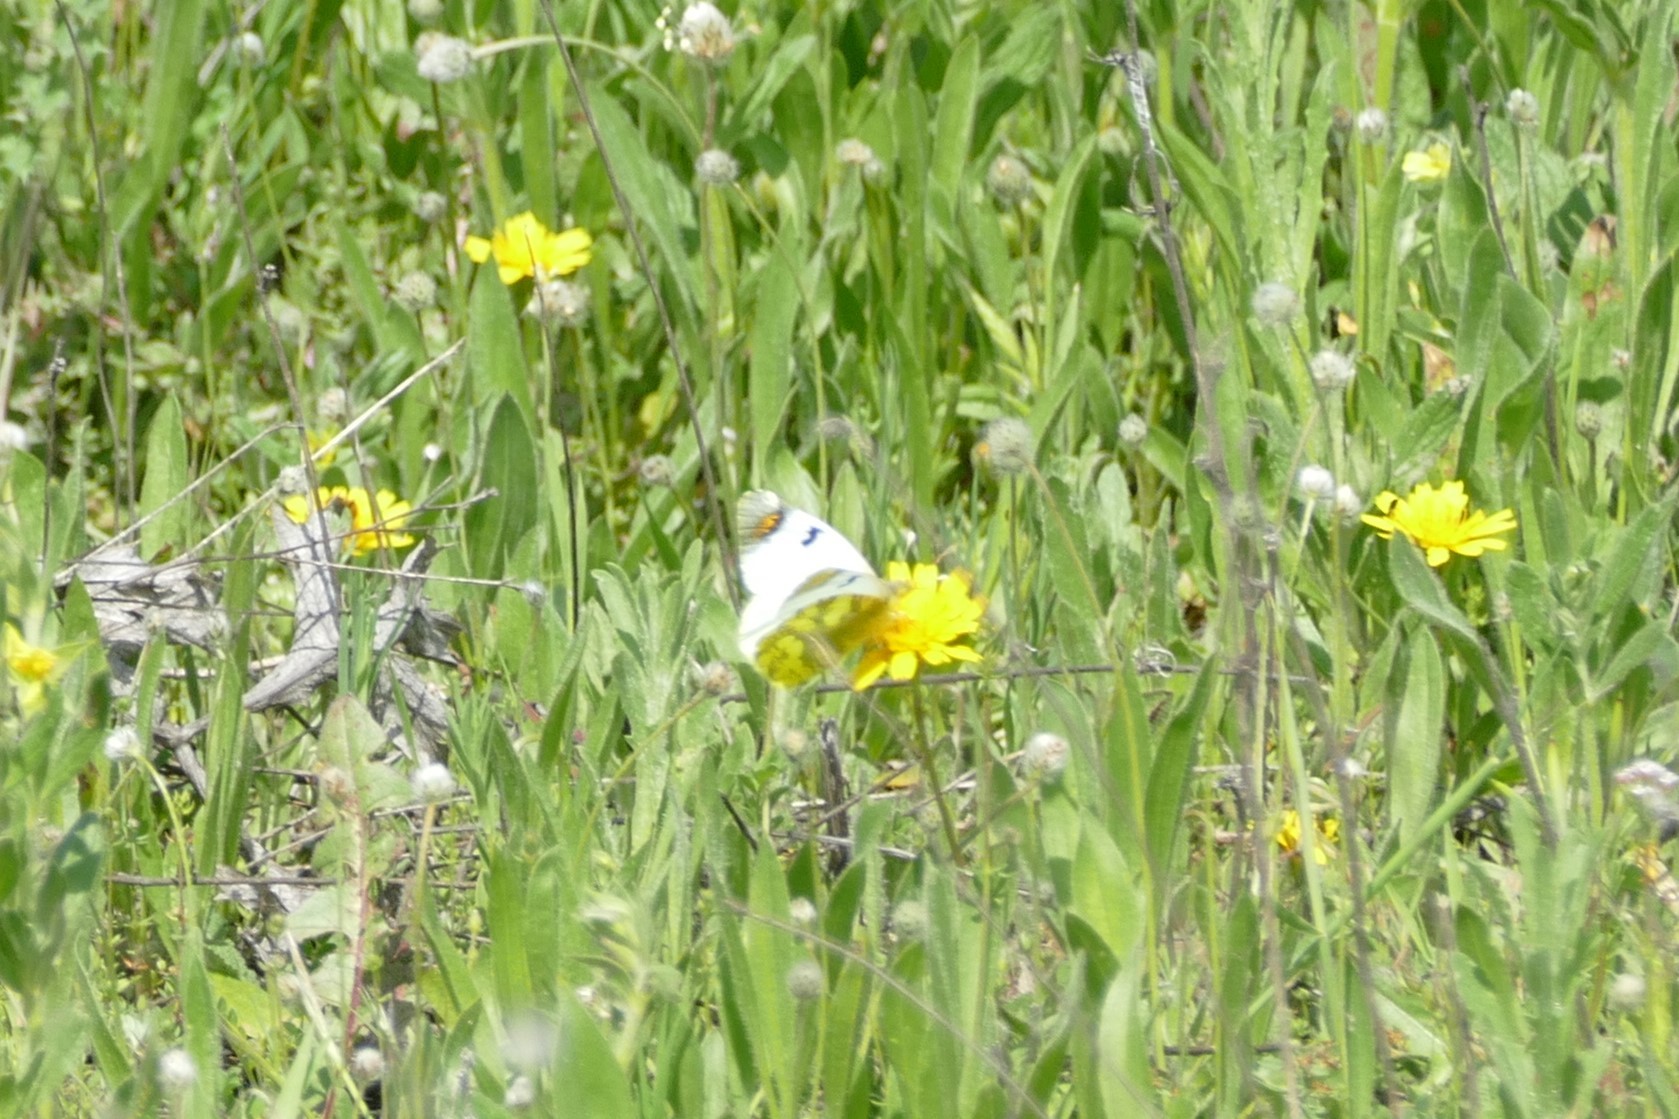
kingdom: Animalia
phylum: Arthropoda
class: Insecta
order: Lepidoptera
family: Pieridae
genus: Zegris
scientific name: Zegris eupheme
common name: Sooty orange tip
